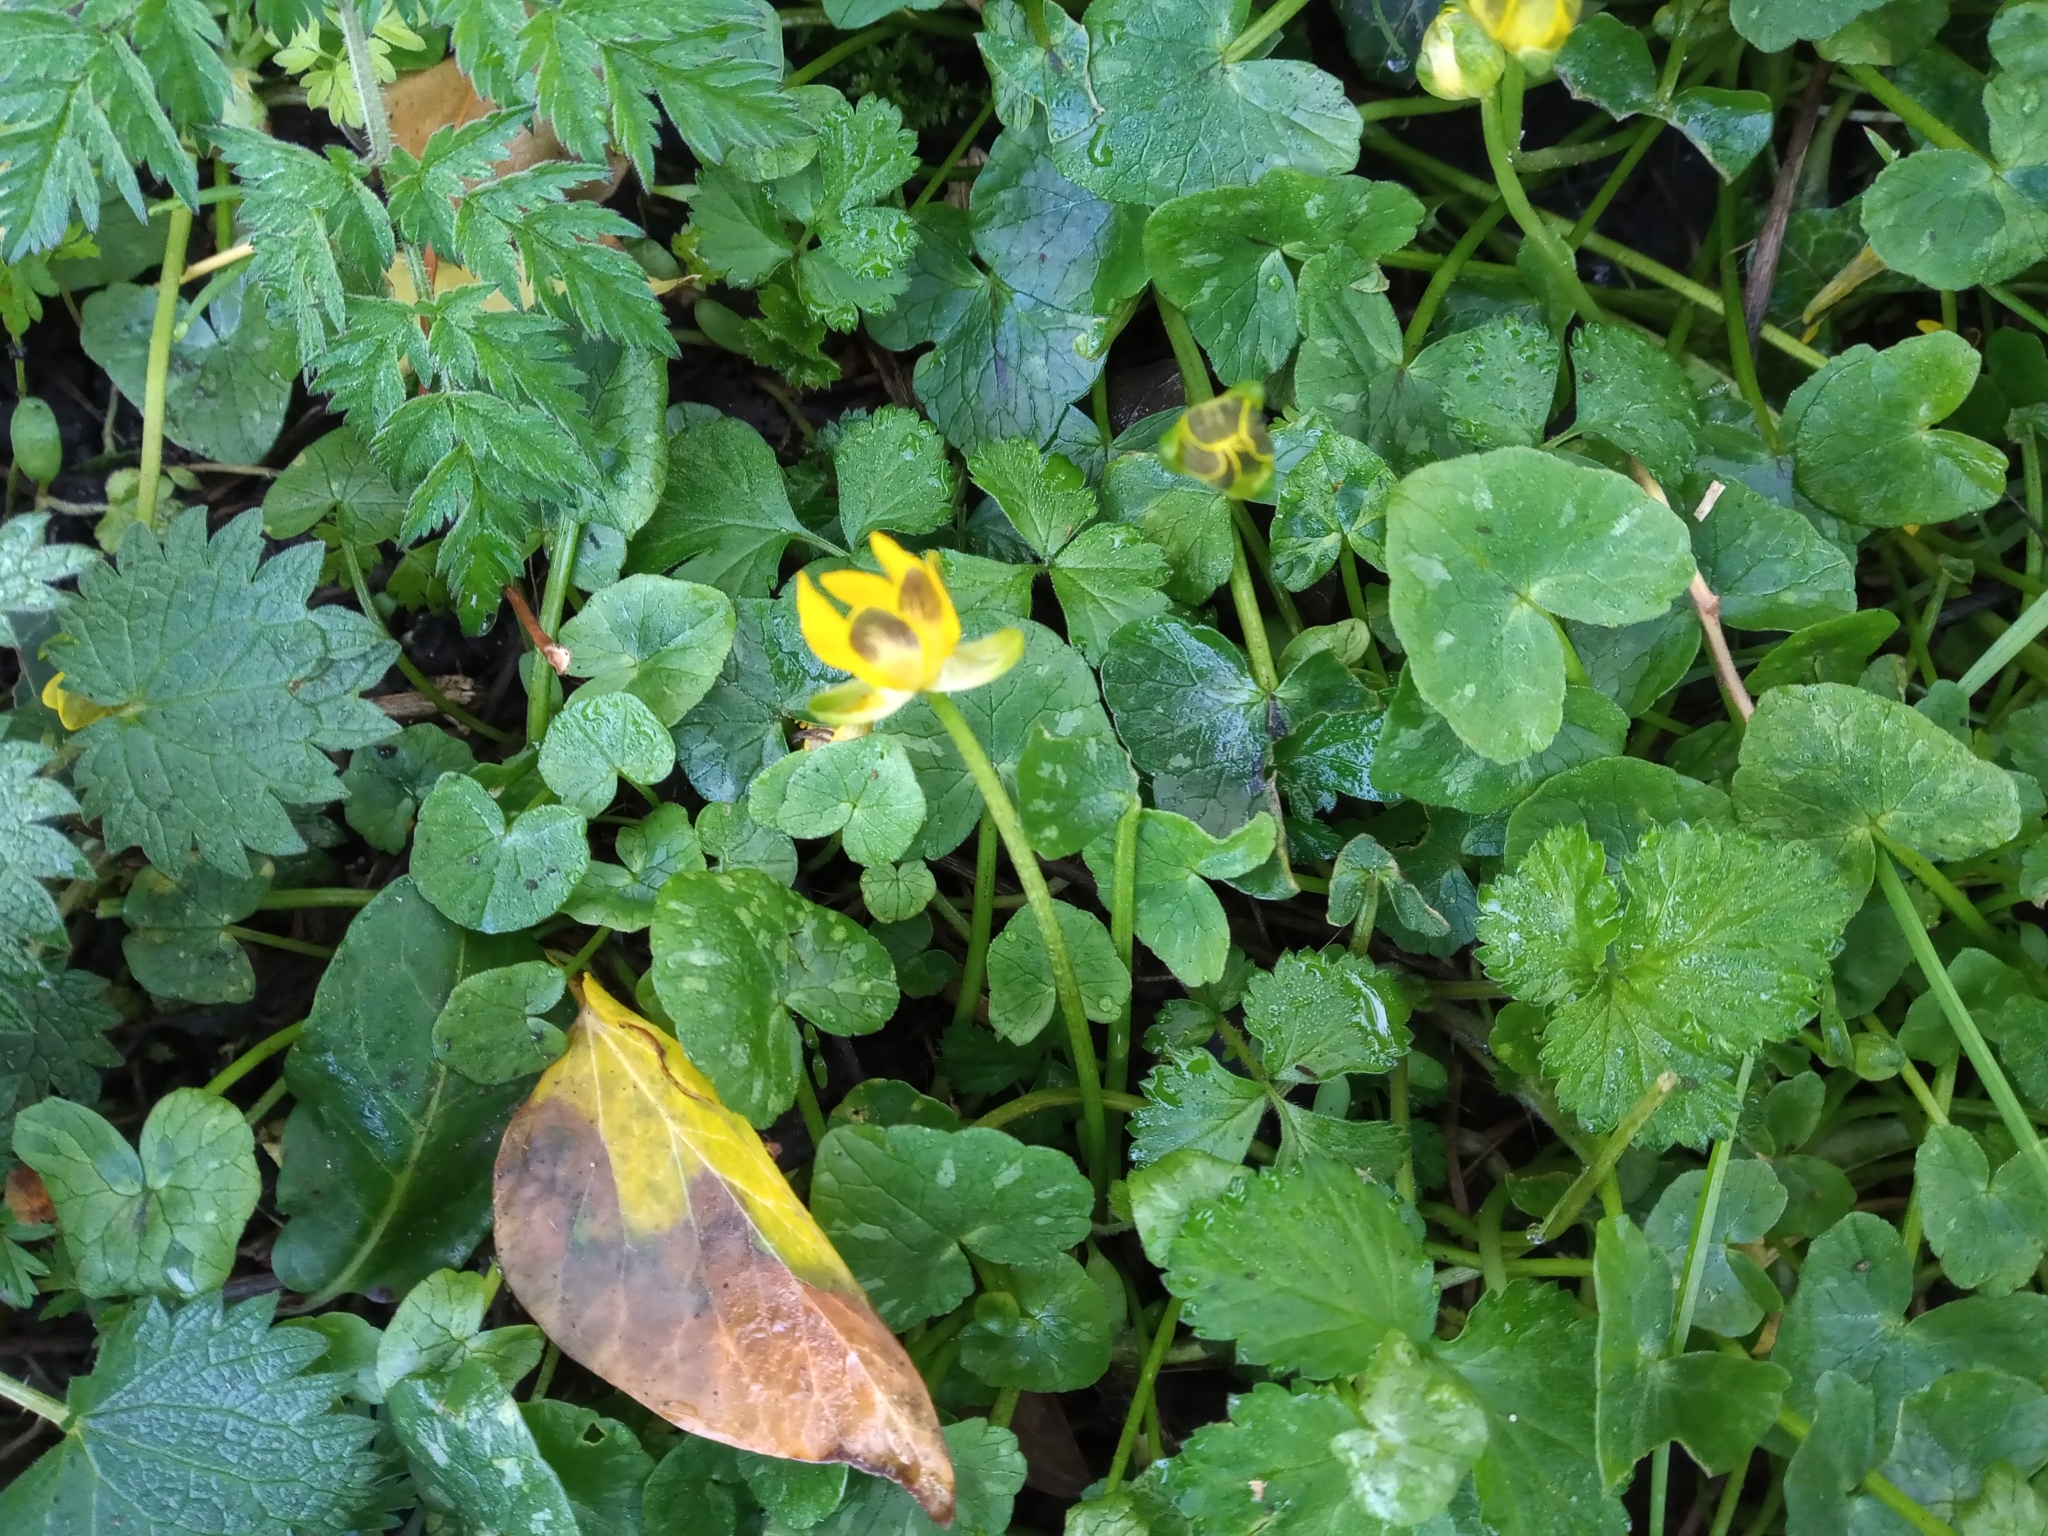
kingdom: Plantae
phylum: Tracheophyta
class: Magnoliopsida
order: Ranunculales
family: Ranunculaceae
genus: Ficaria
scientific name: Ficaria verna
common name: Lesser celandine
